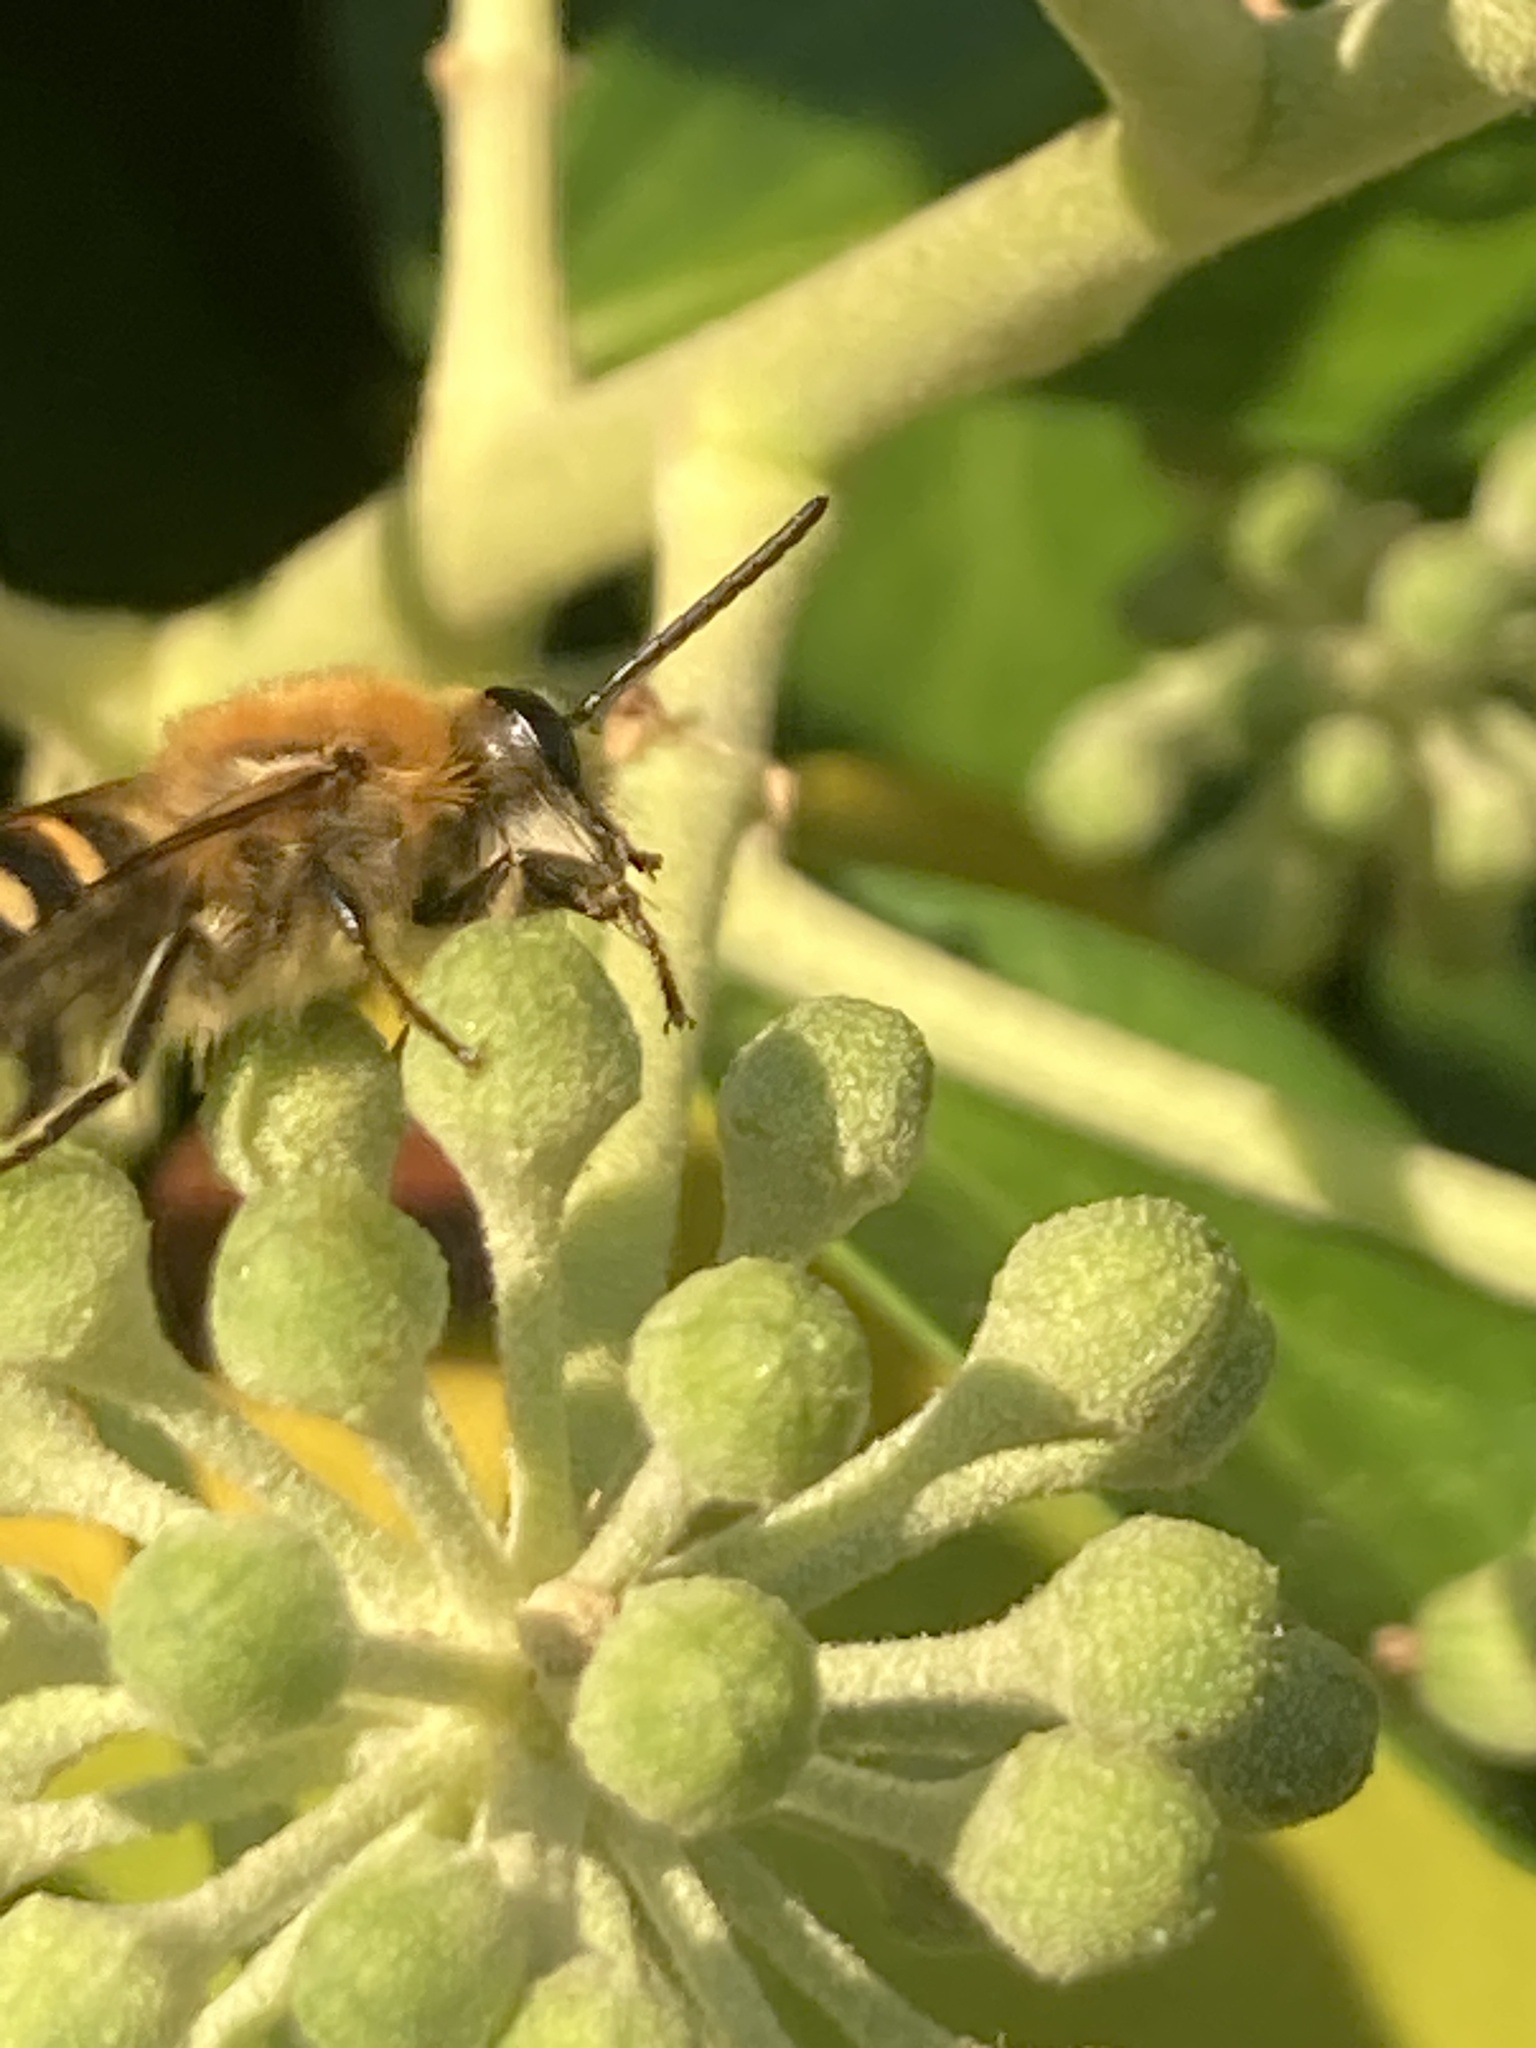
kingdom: Animalia
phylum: Arthropoda
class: Insecta
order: Hymenoptera
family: Colletidae
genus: Colletes
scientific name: Colletes hederae
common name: Ivy bee
